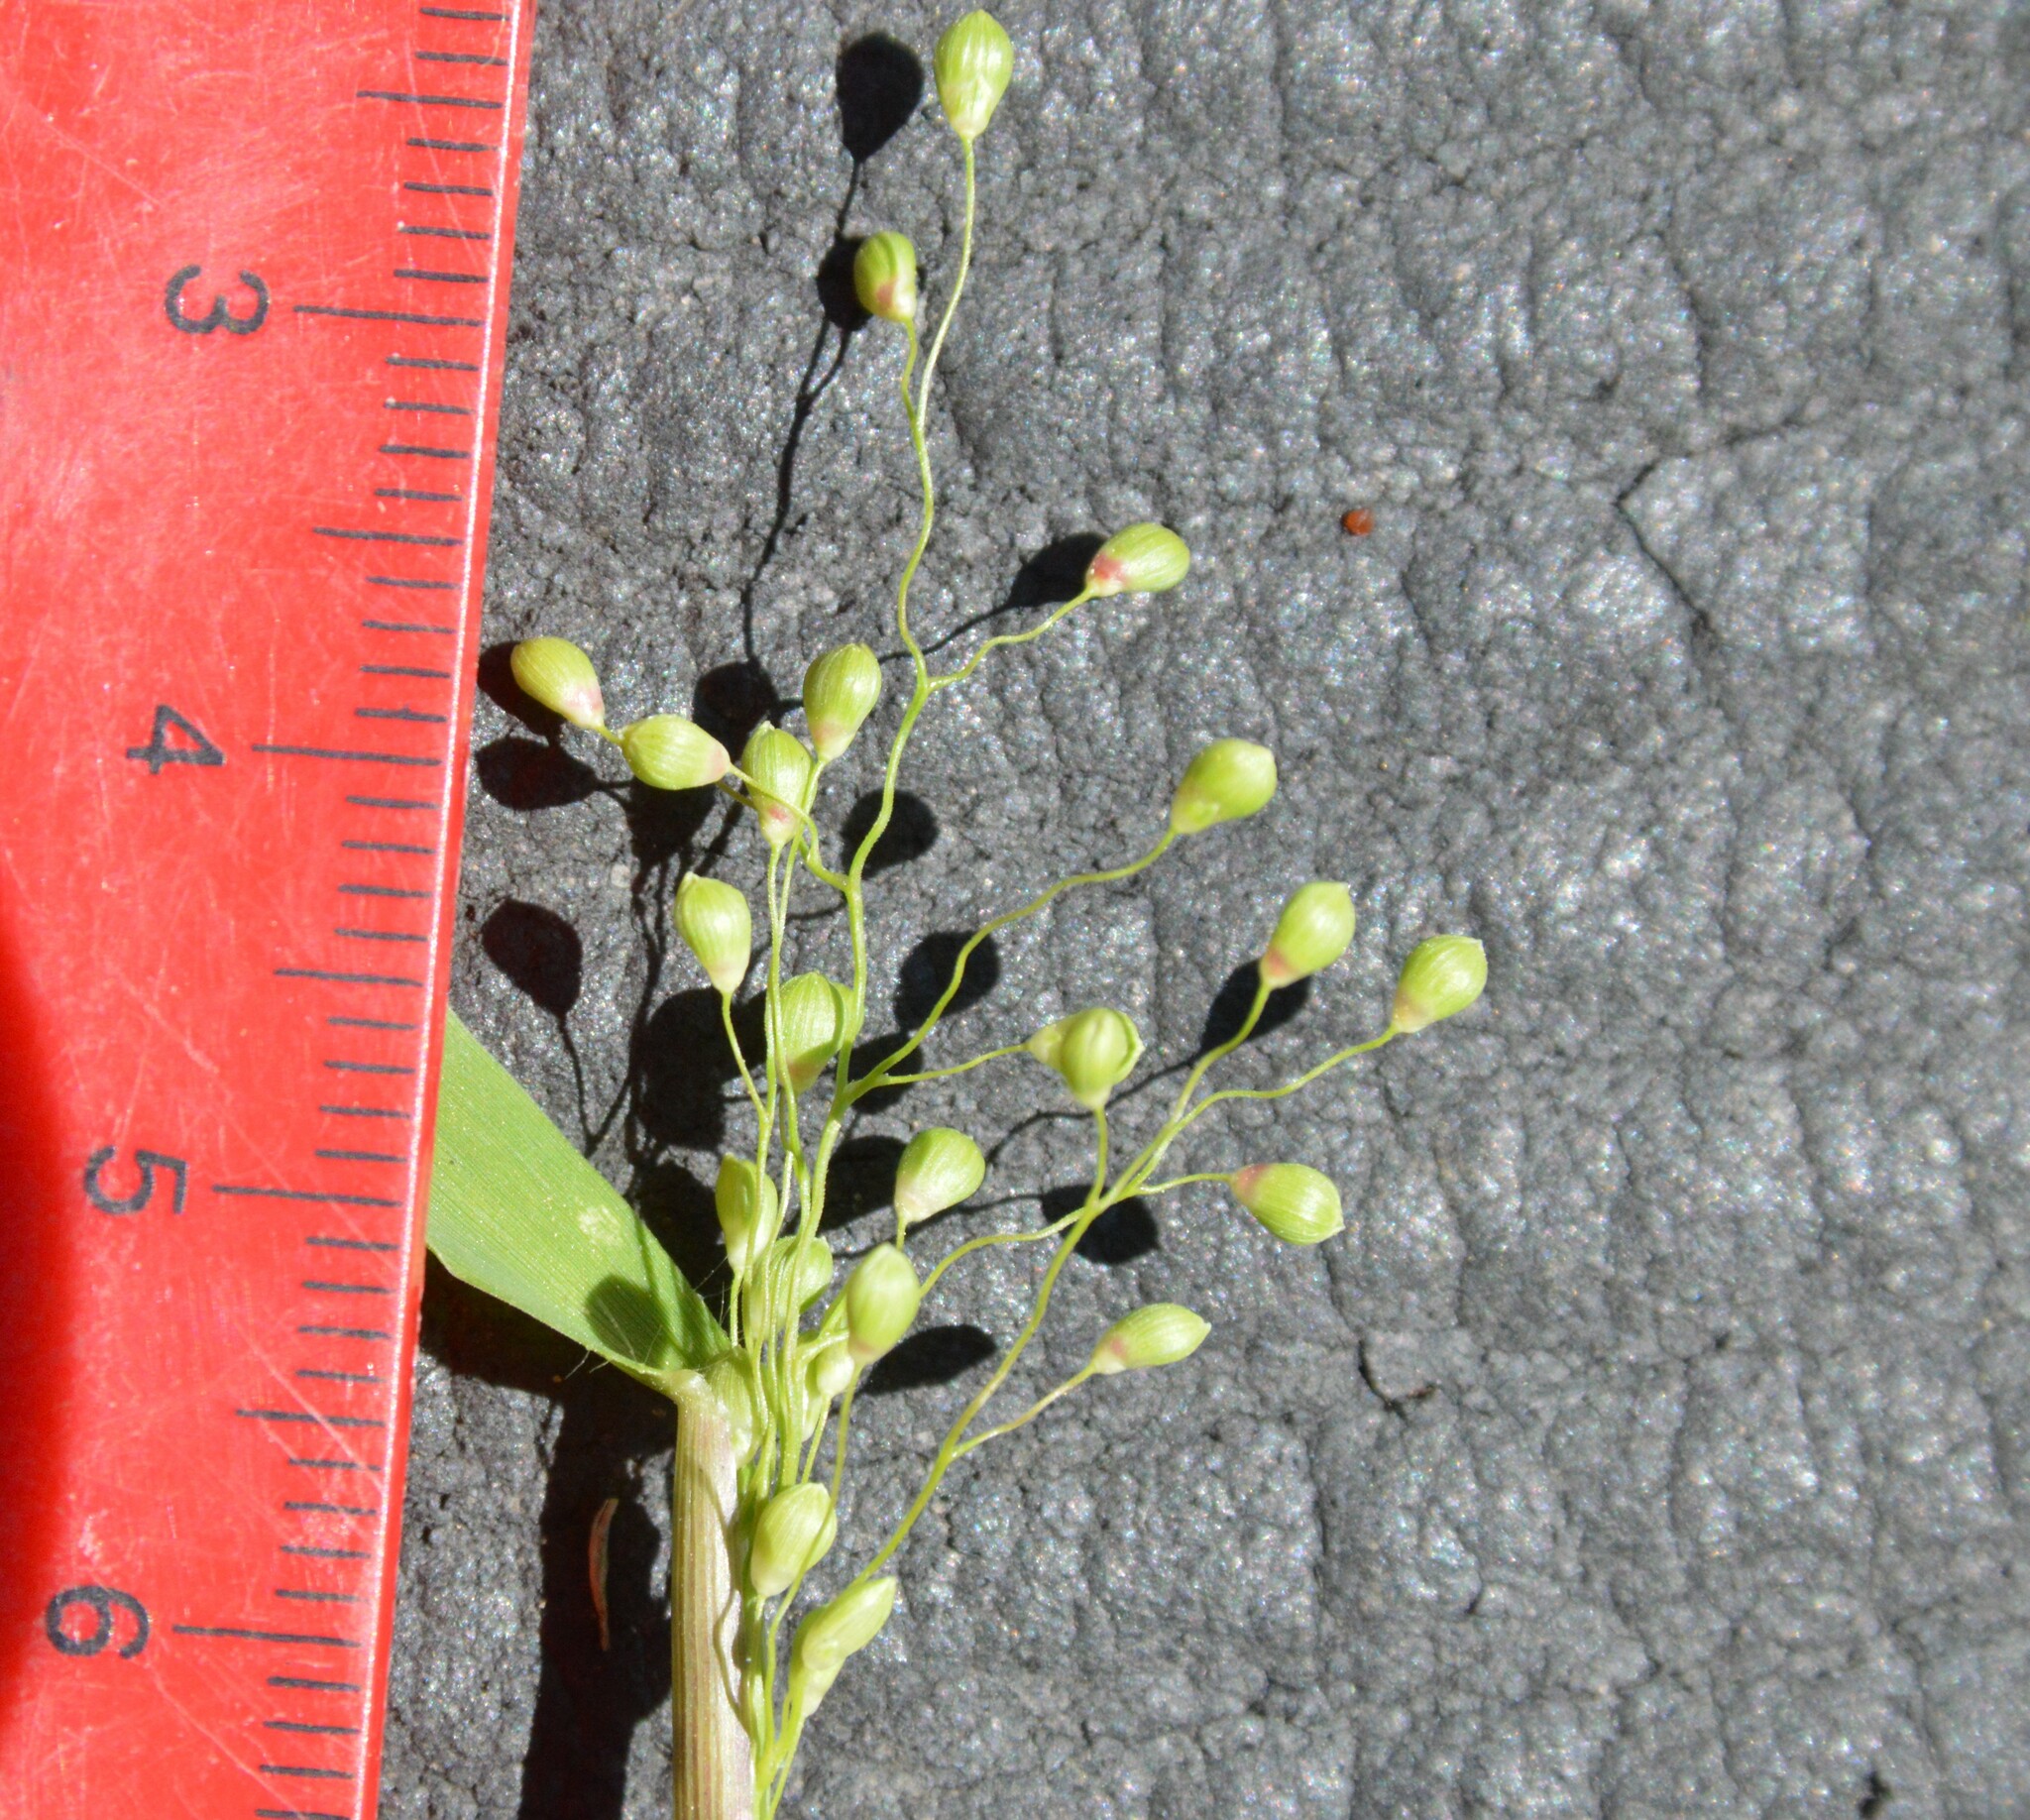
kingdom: Plantae
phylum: Tracheophyta
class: Liliopsida
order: Poales
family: Poaceae
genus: Dichanthelium
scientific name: Dichanthelium scribnerianum
